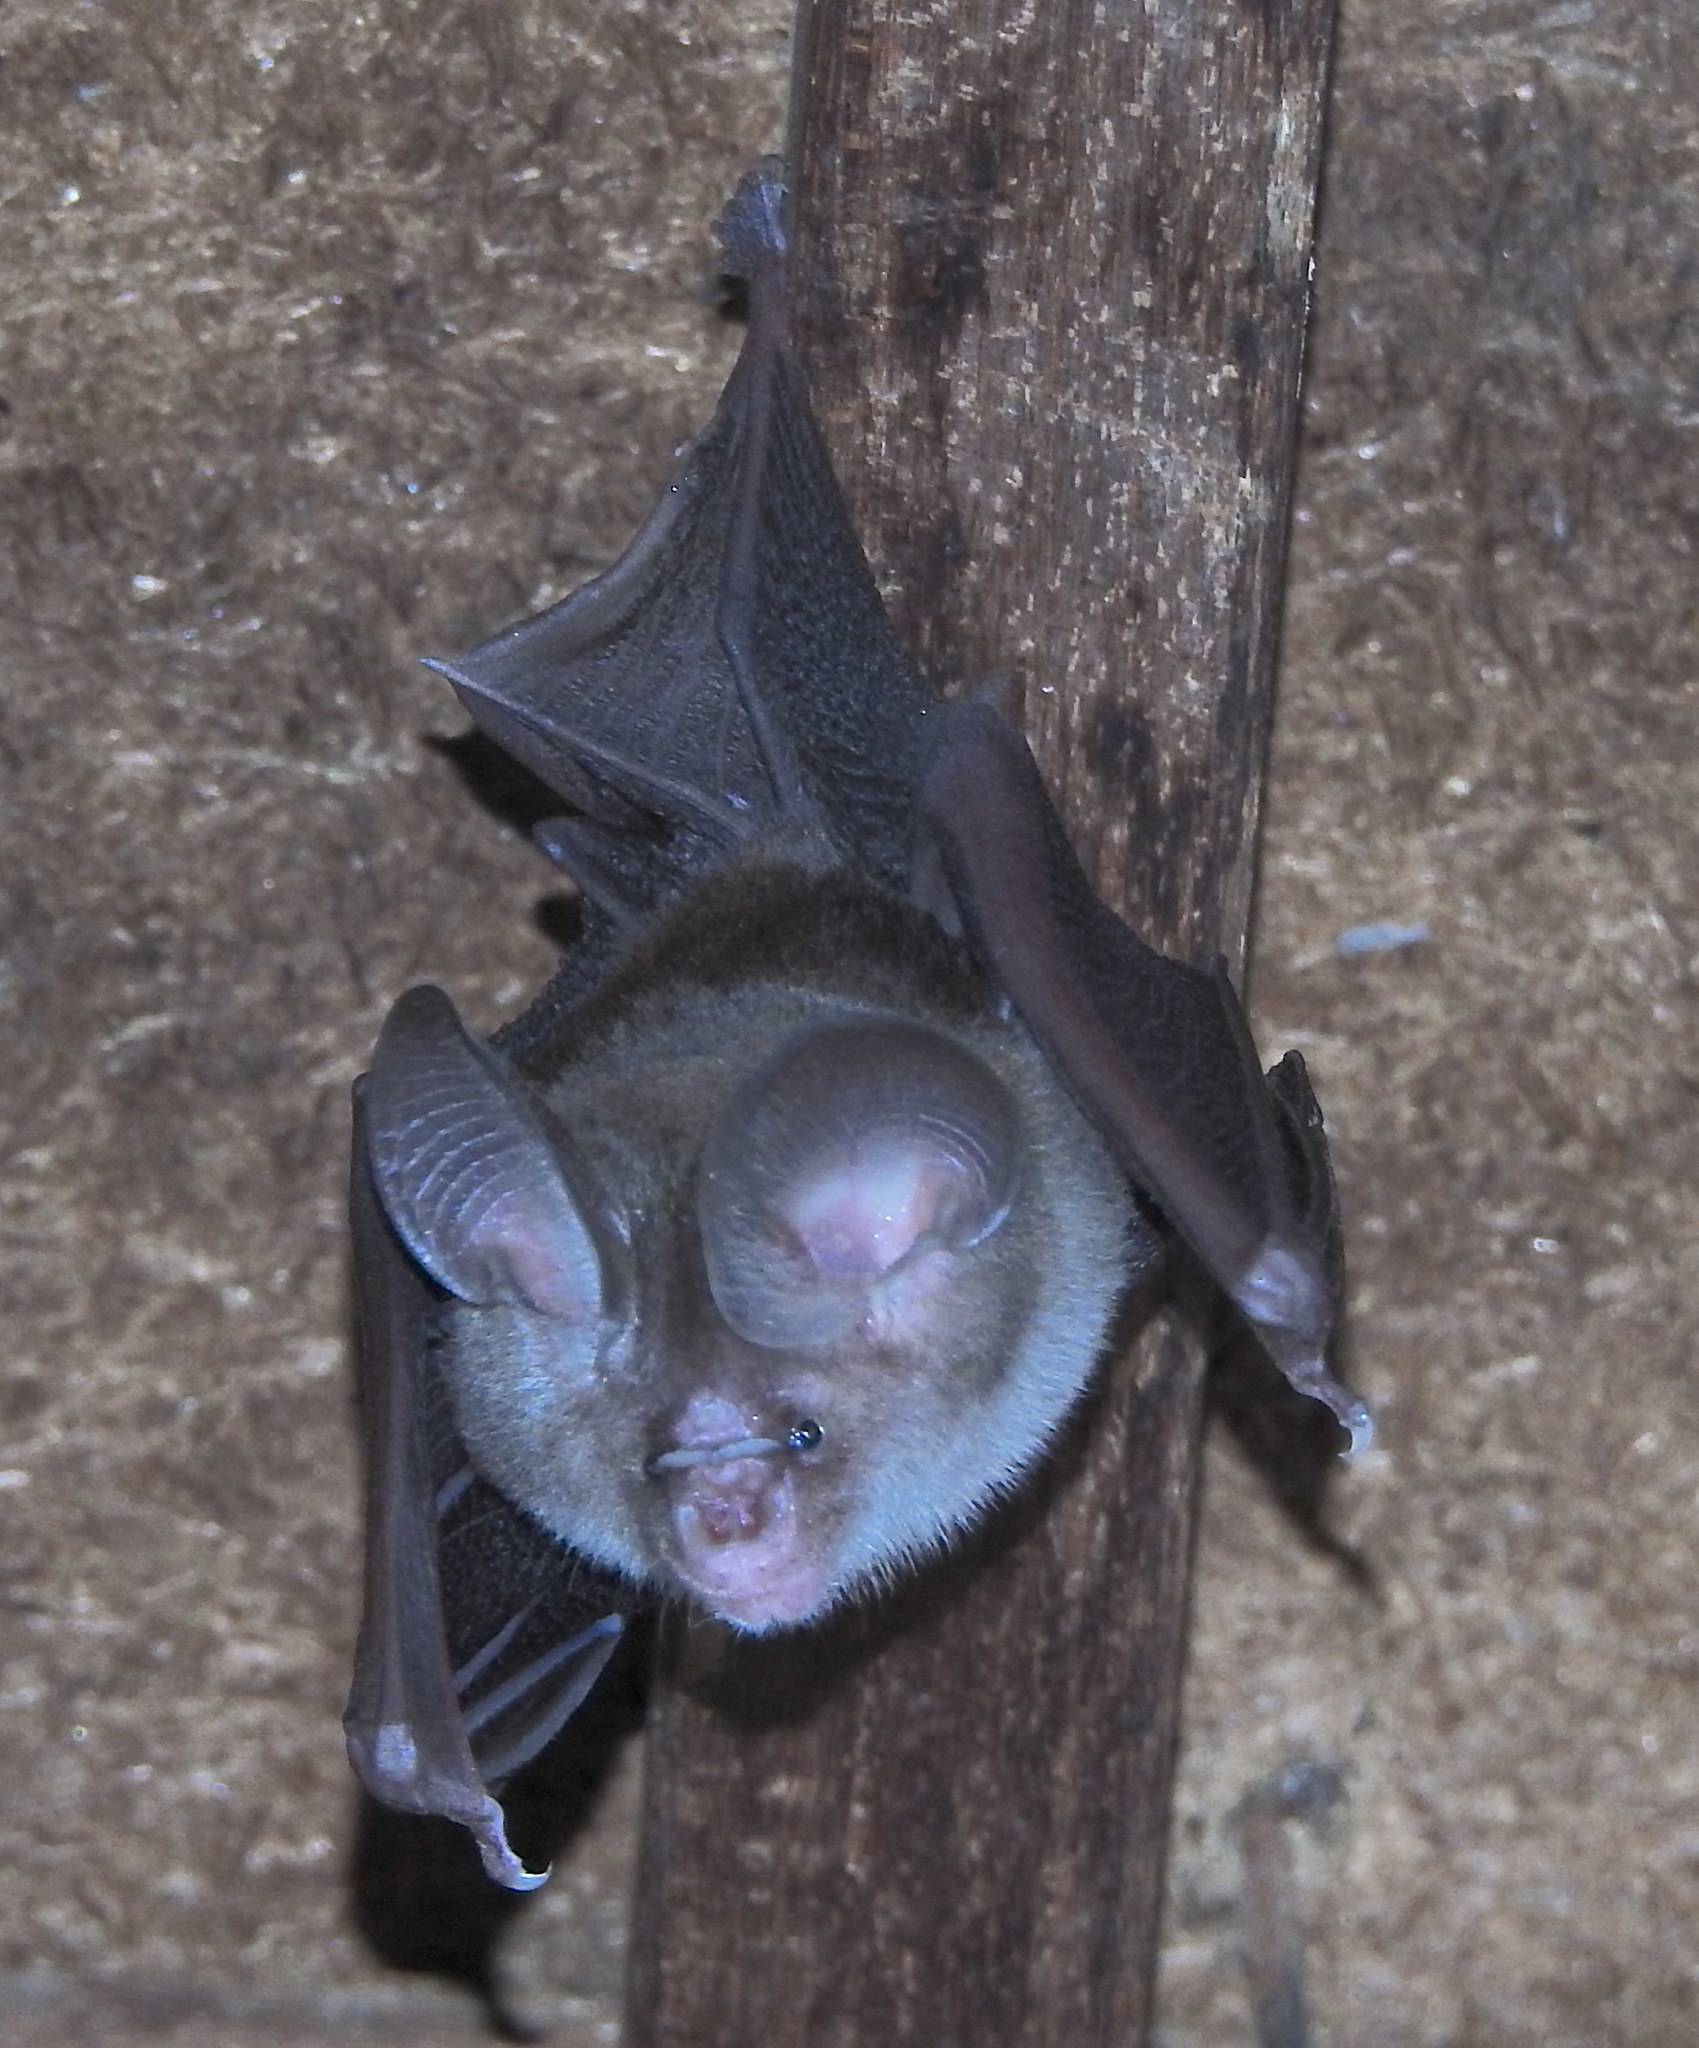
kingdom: Animalia
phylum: Chordata
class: Mammalia
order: Chiroptera
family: Hipposideridae
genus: Hipposideros
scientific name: Hipposideros fulvus
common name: Fulvus leaf-nosed bat
